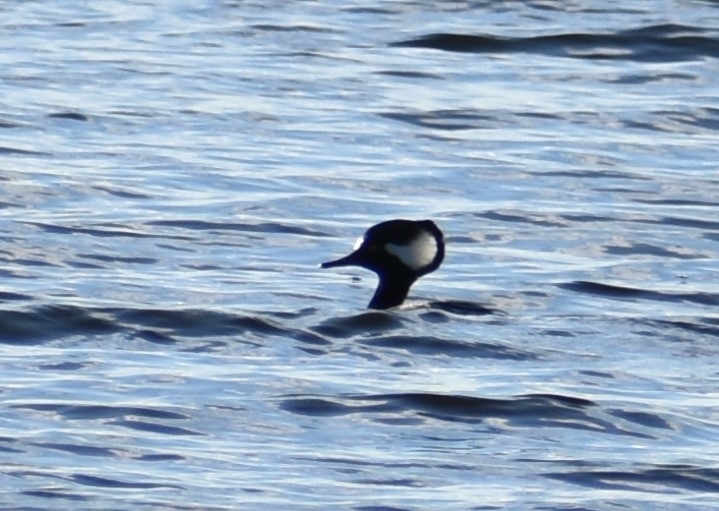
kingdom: Animalia
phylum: Chordata
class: Aves
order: Anseriformes
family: Anatidae
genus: Lophodytes
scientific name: Lophodytes cucullatus
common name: Hooded merganser
